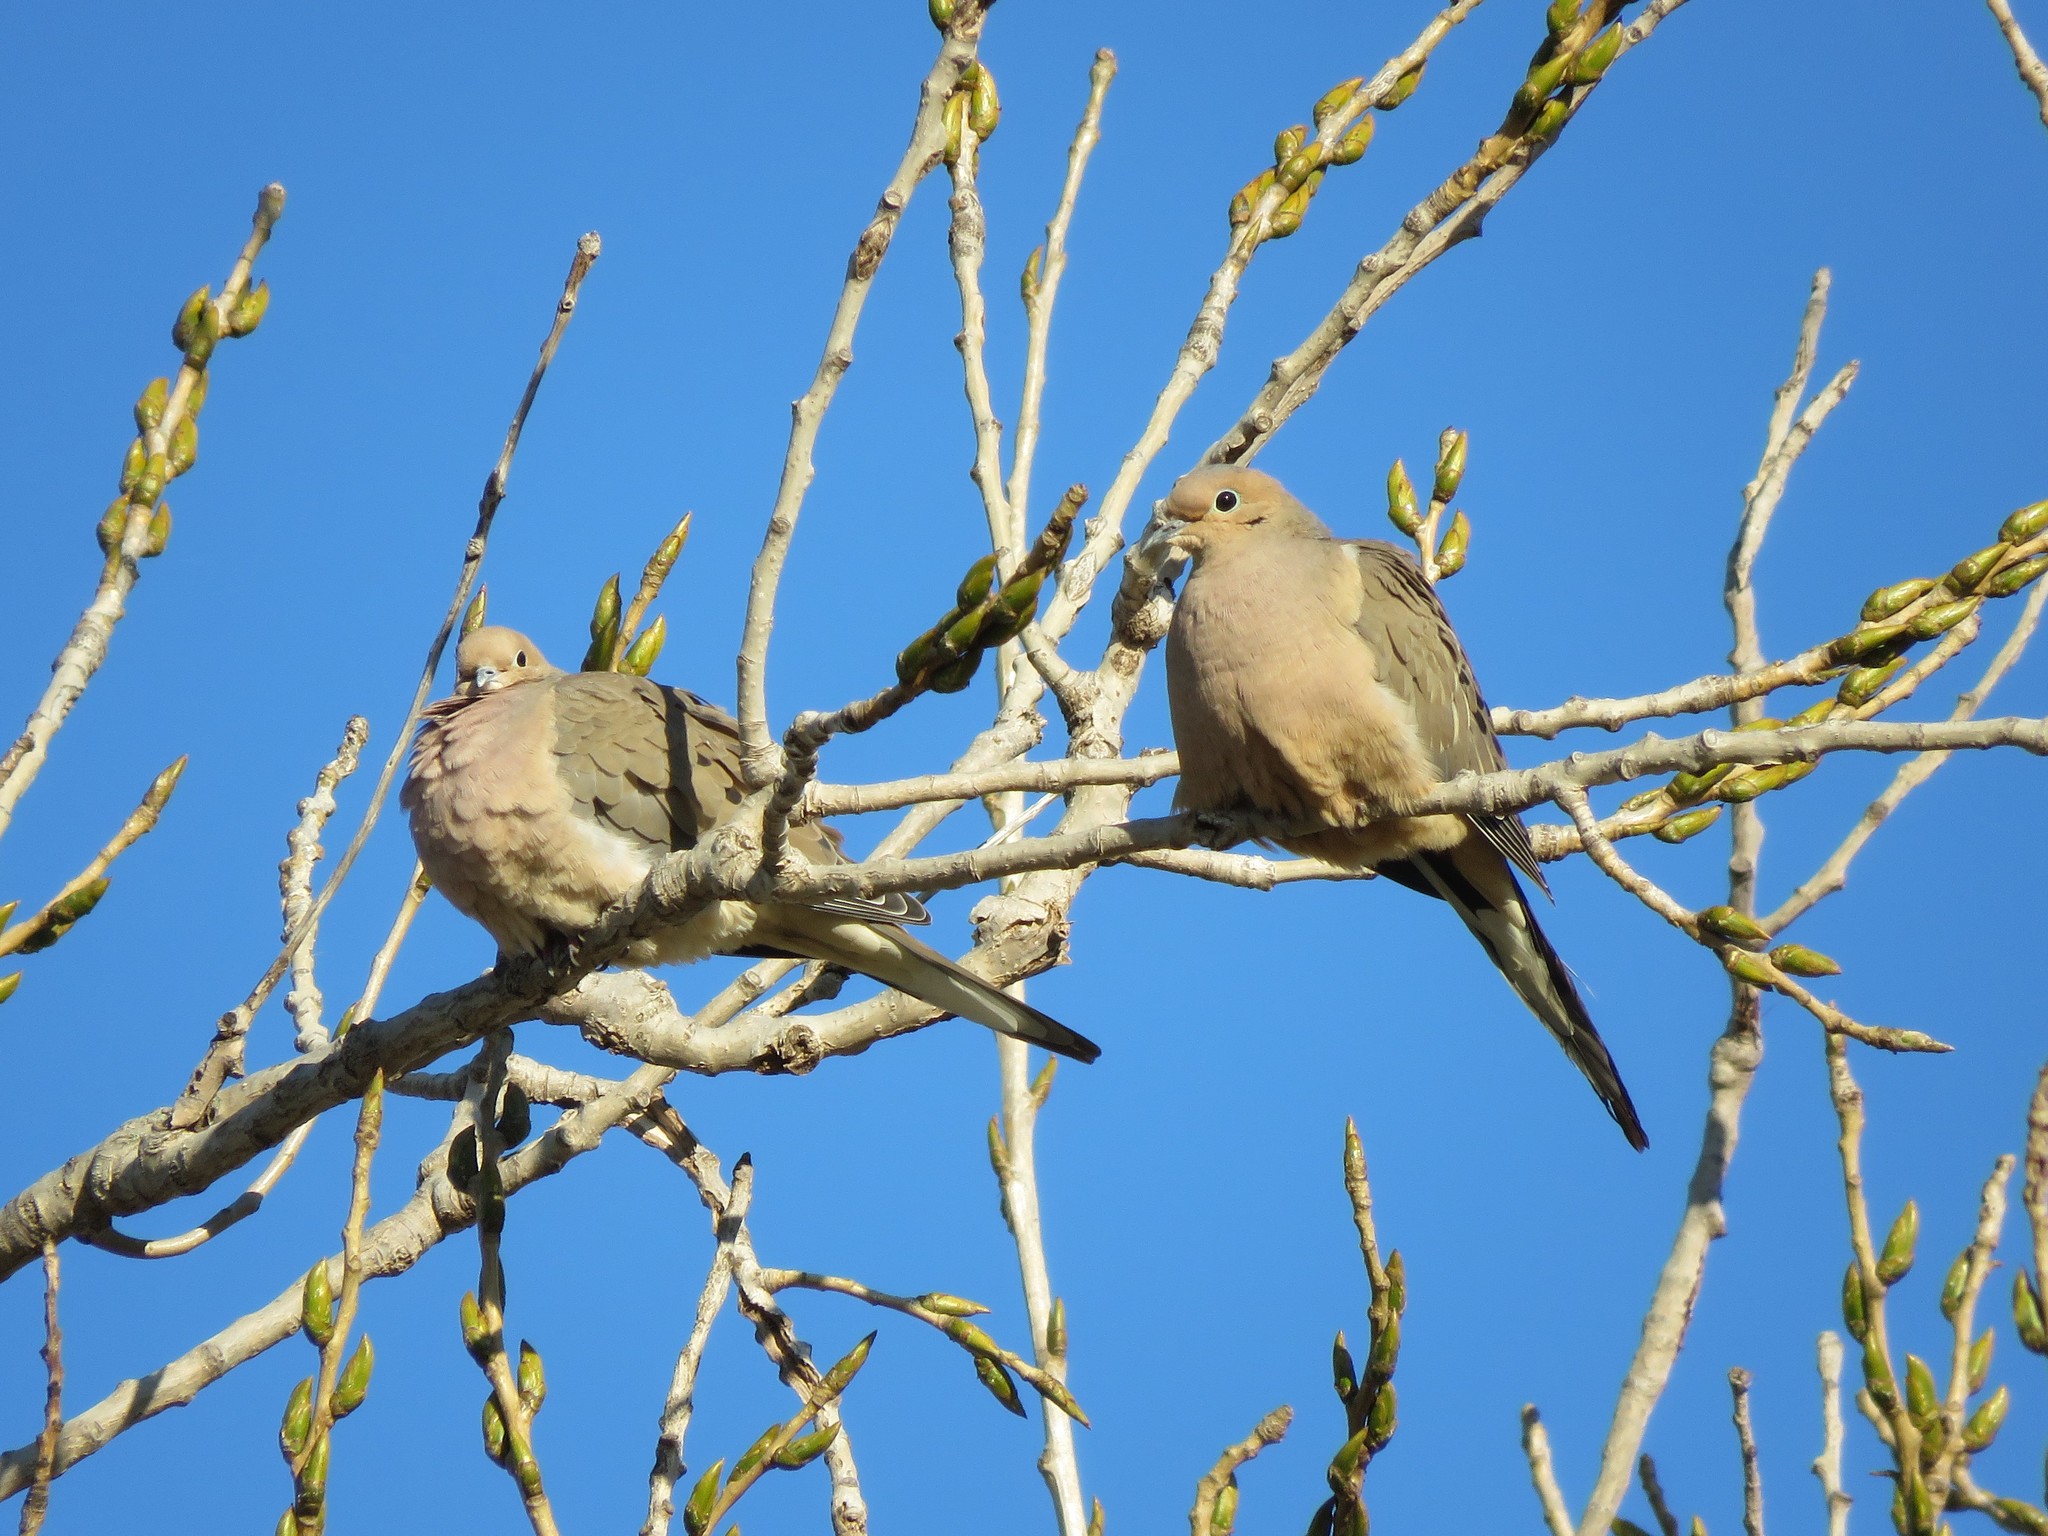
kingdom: Animalia
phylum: Chordata
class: Aves
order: Columbiformes
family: Columbidae
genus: Zenaida
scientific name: Zenaida macroura
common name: Mourning dove
